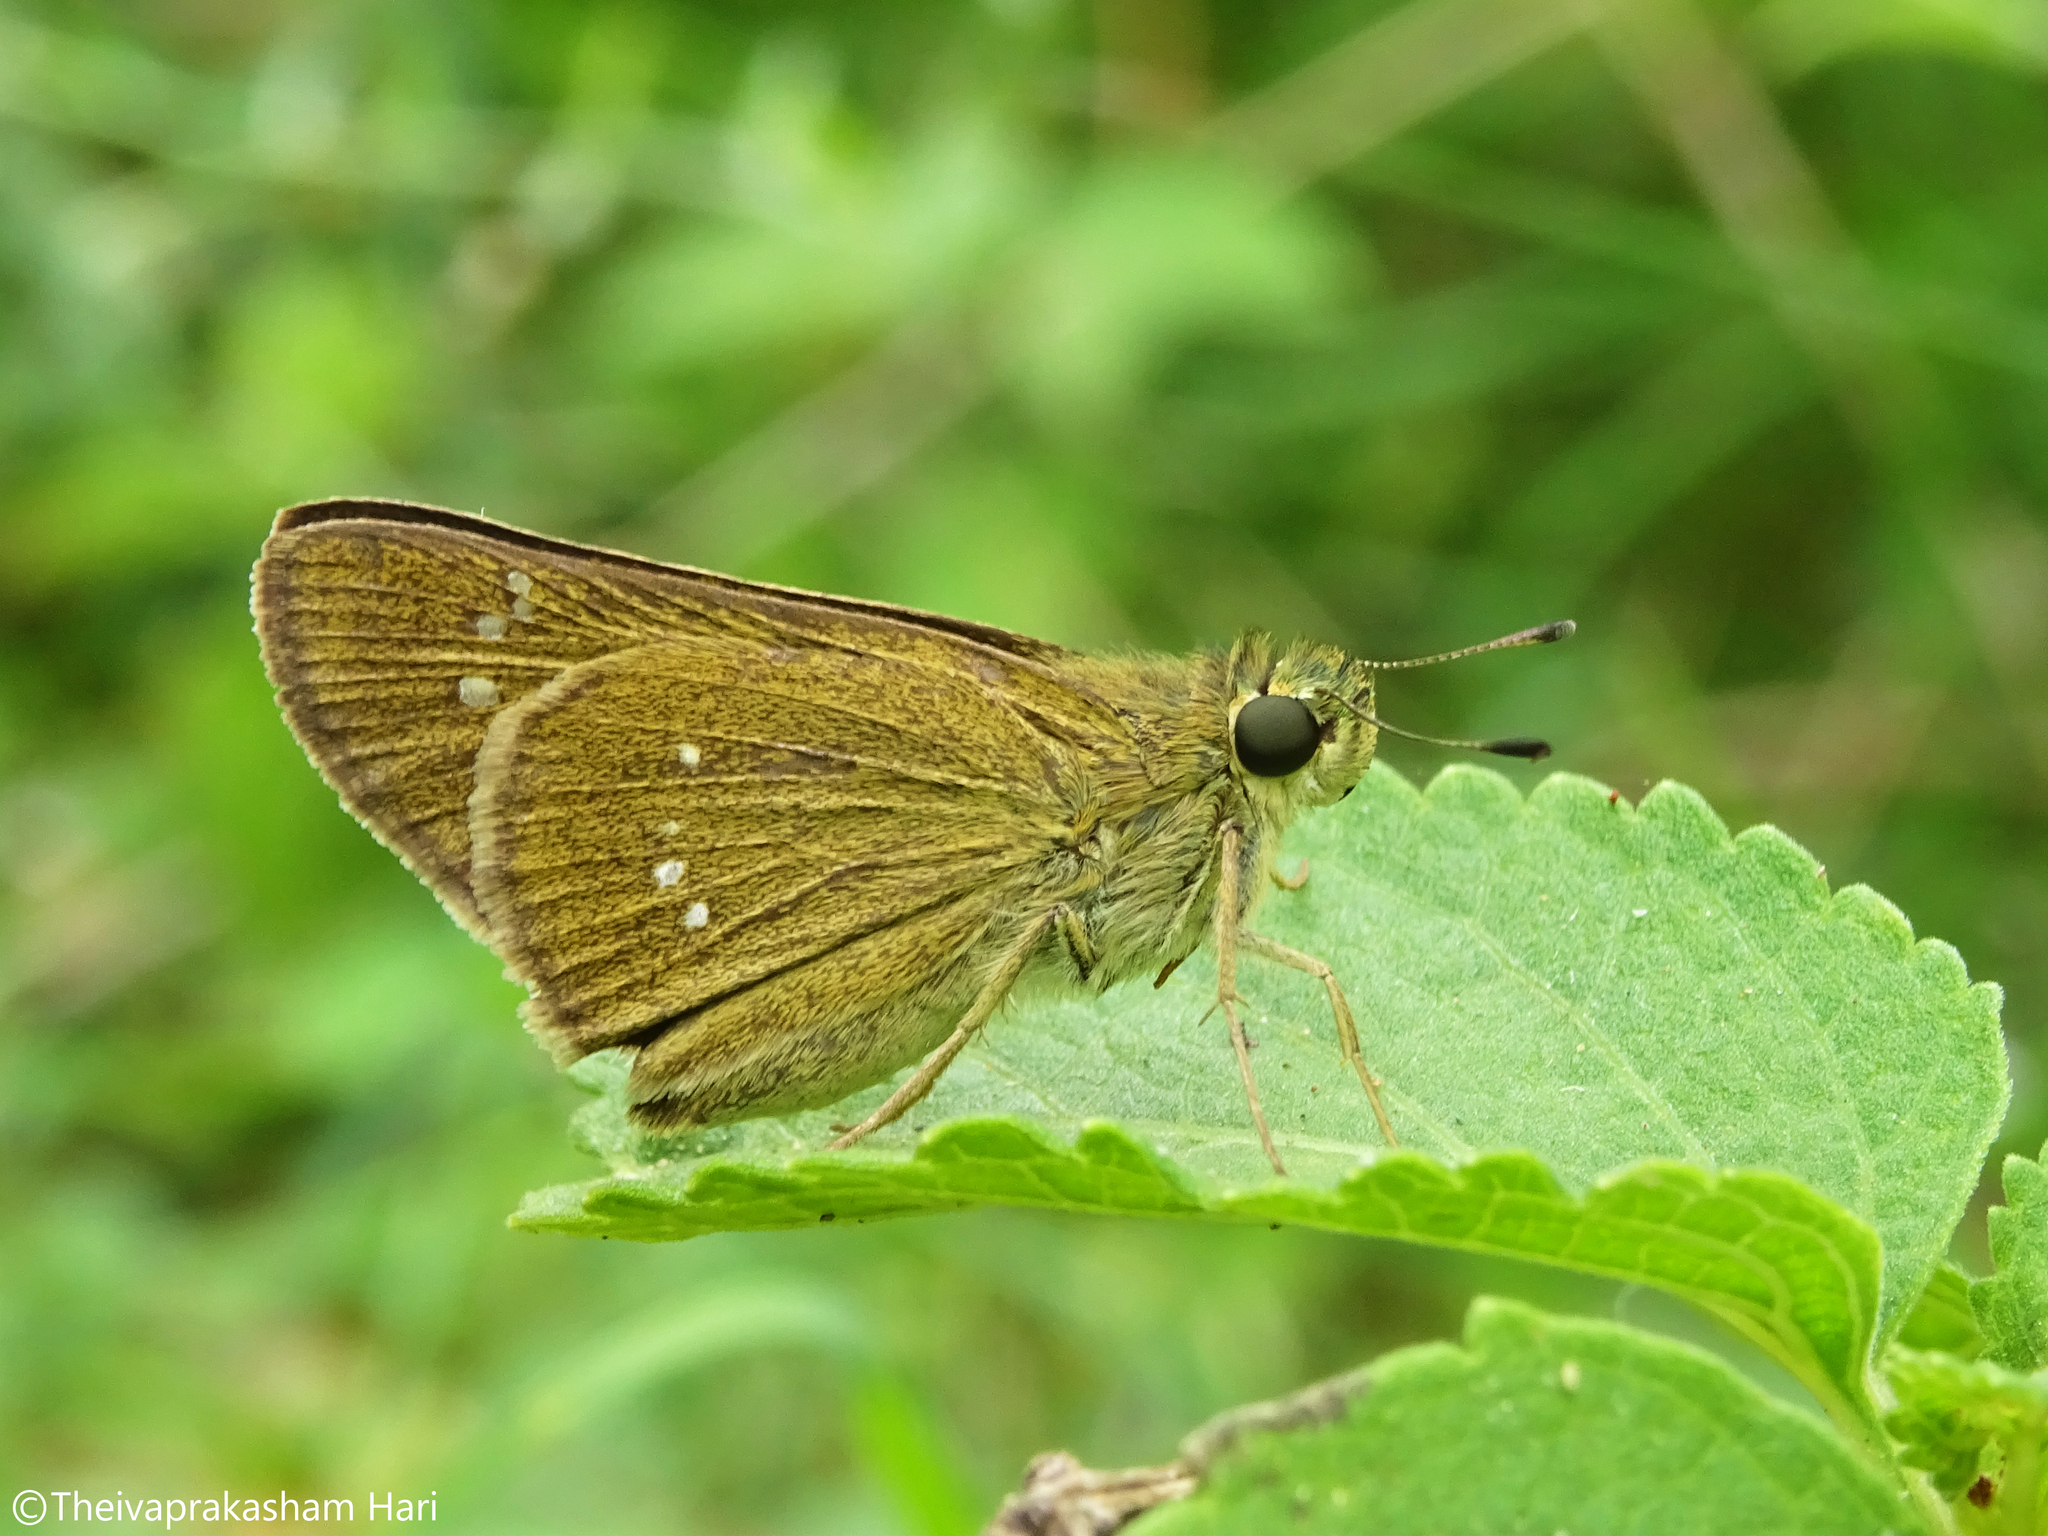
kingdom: Animalia
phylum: Arthropoda
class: Insecta
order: Lepidoptera
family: Hesperiidae
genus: Borbo
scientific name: Borbo cinnara
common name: Formosan swift
